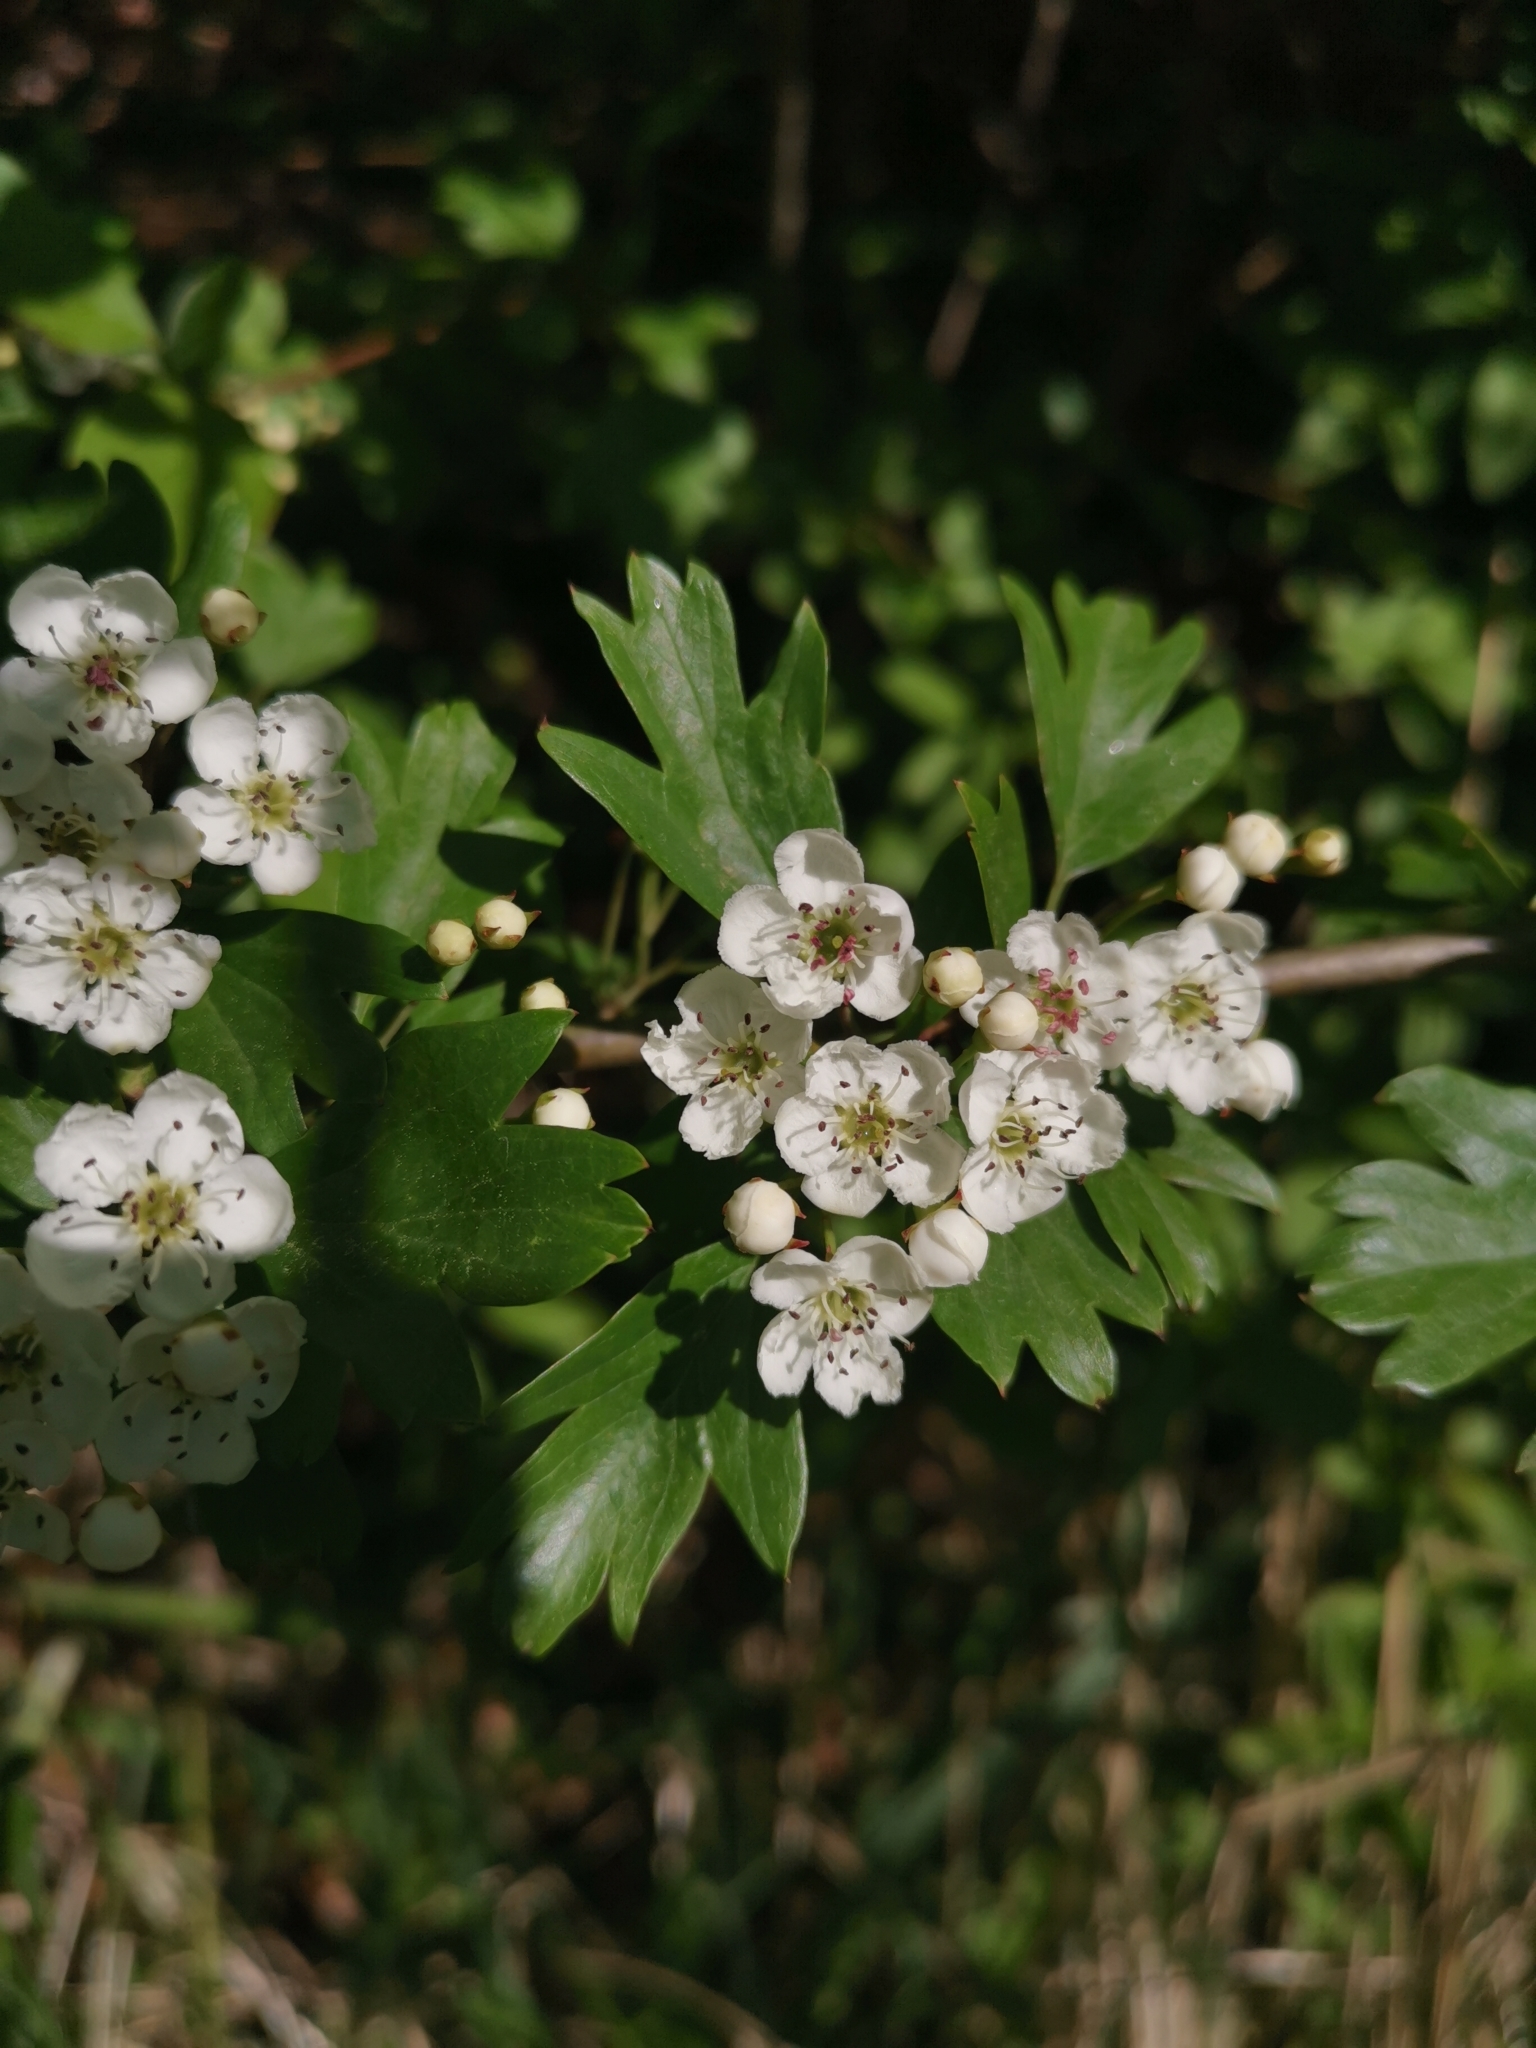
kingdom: Plantae
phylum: Tracheophyta
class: Magnoliopsida
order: Rosales
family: Rosaceae
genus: Crataegus
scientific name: Crataegus monogyna
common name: Hawthorn
